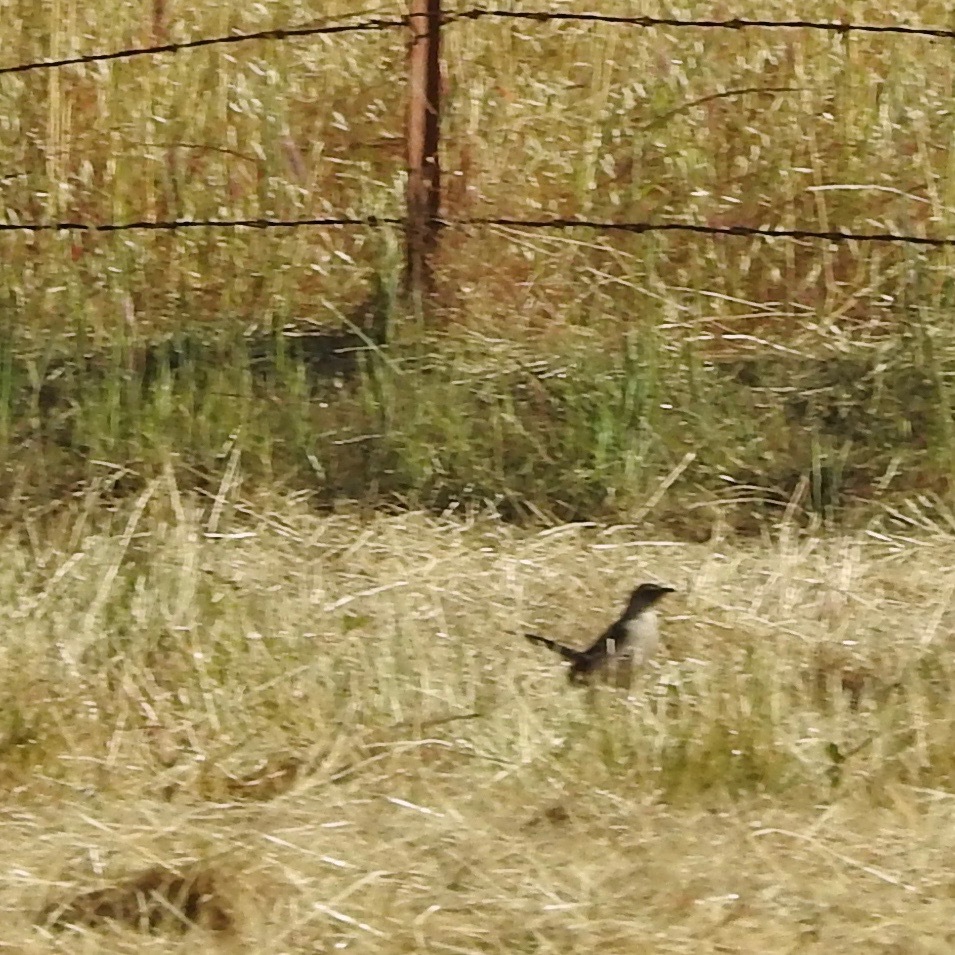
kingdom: Animalia
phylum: Chordata
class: Aves
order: Passeriformes
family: Mimidae
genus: Mimus
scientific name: Mimus polyglottos
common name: Northern mockingbird
